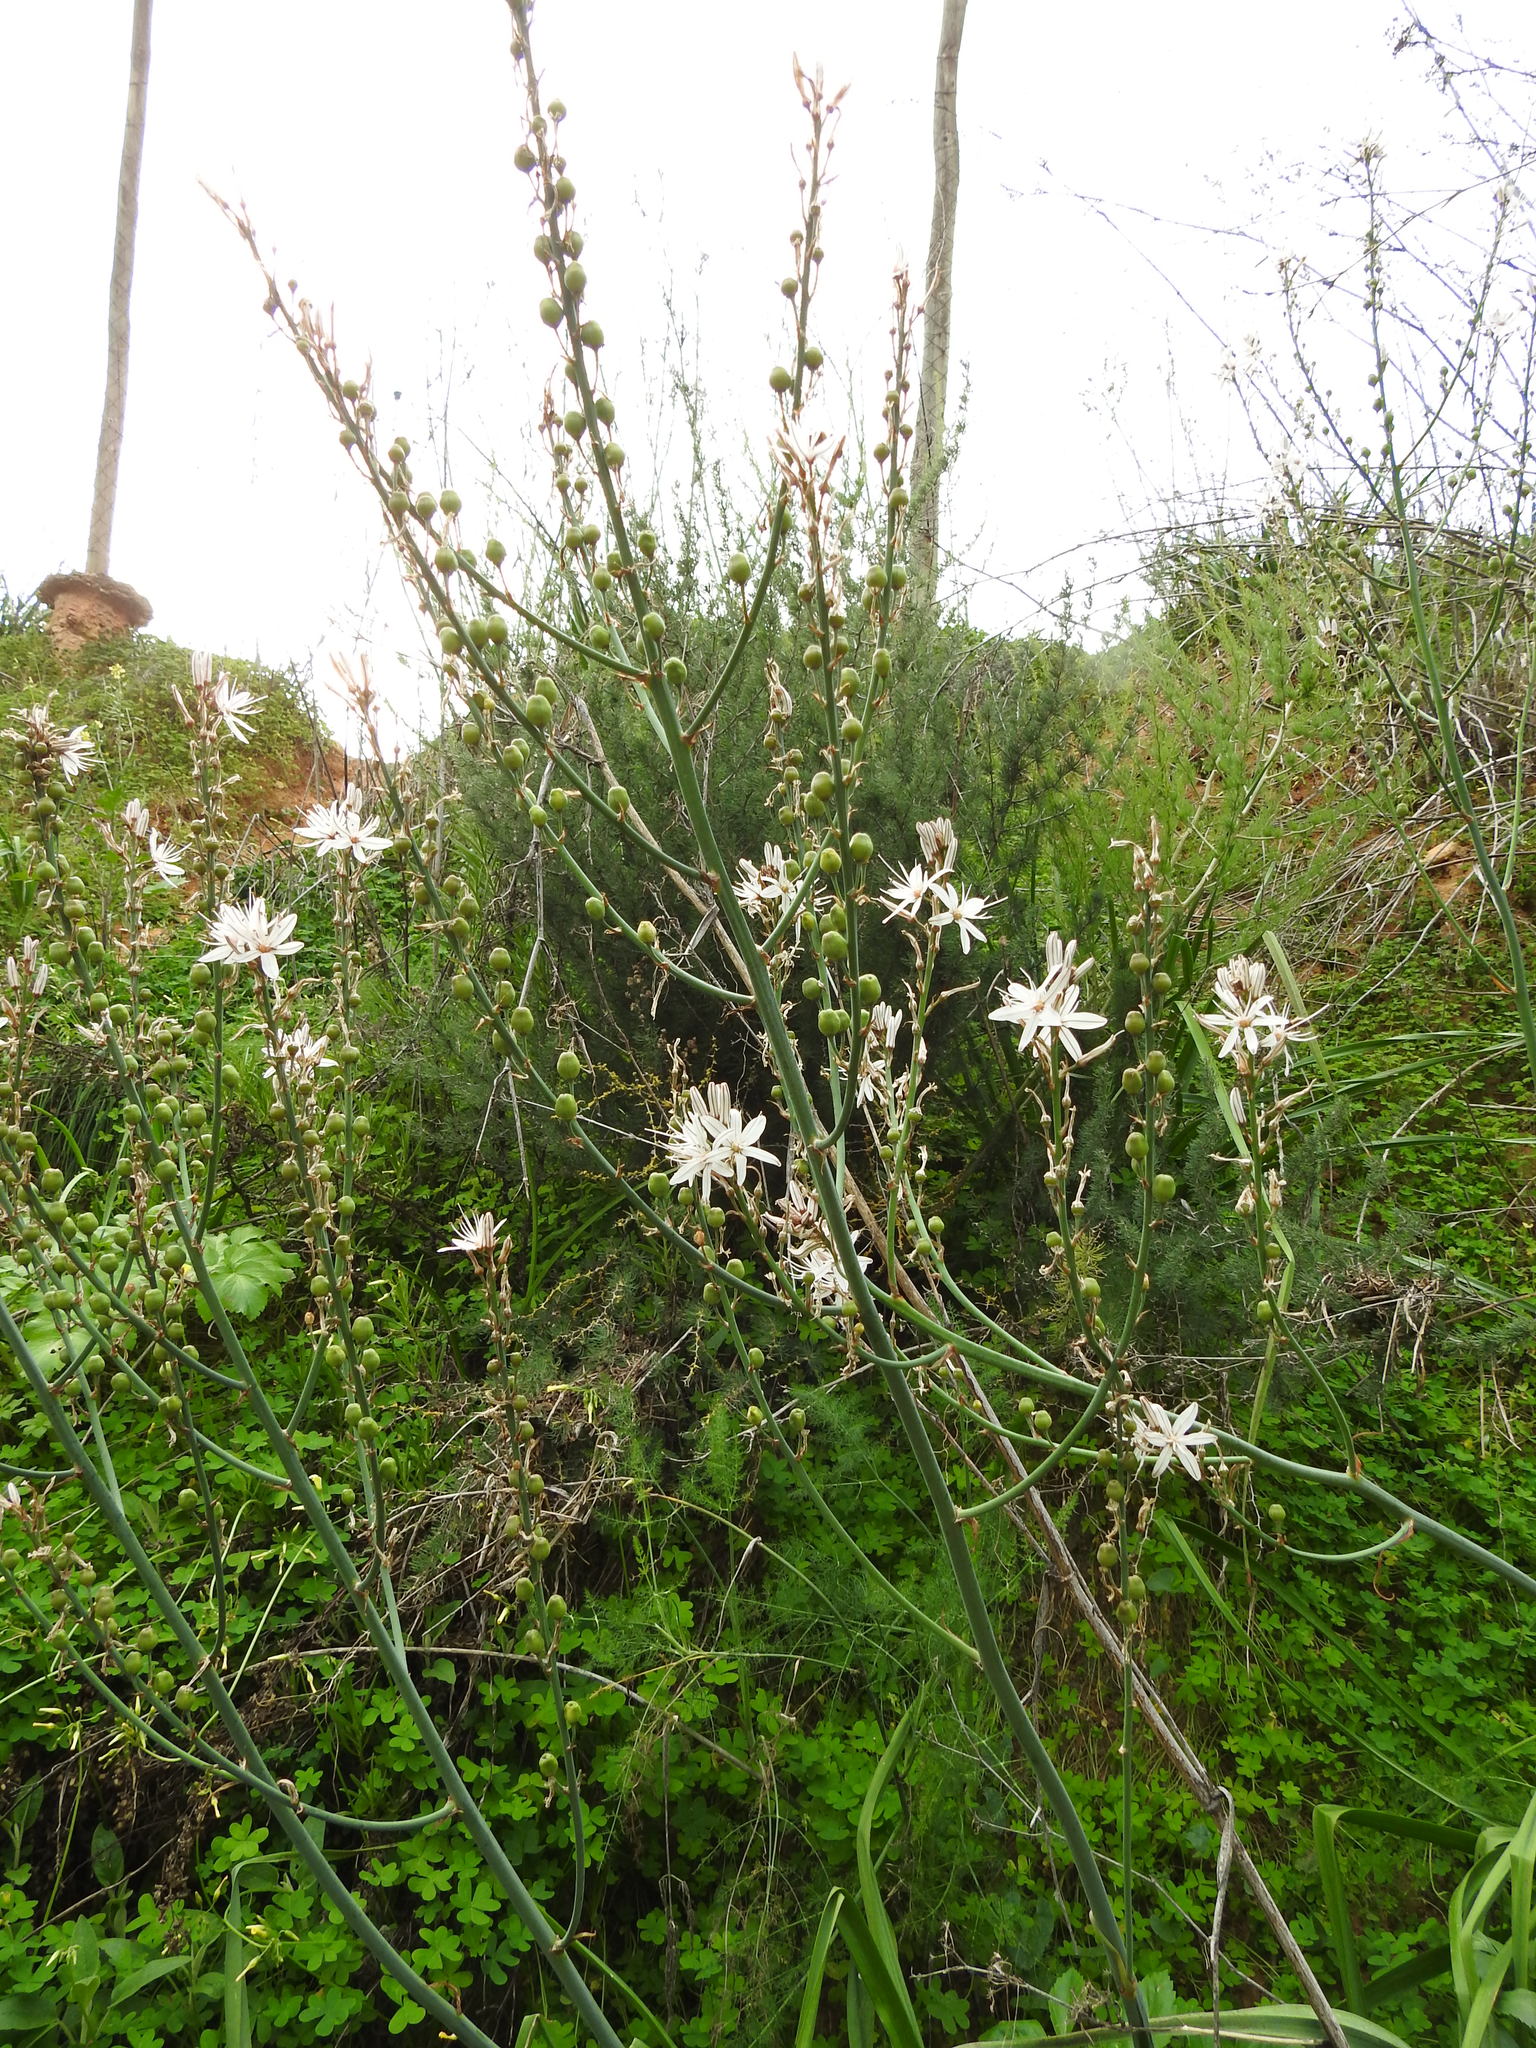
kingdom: Plantae
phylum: Tracheophyta
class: Liliopsida
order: Asparagales
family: Asphodelaceae
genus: Asphodelus
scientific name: Asphodelus ramosus
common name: Silverrod
